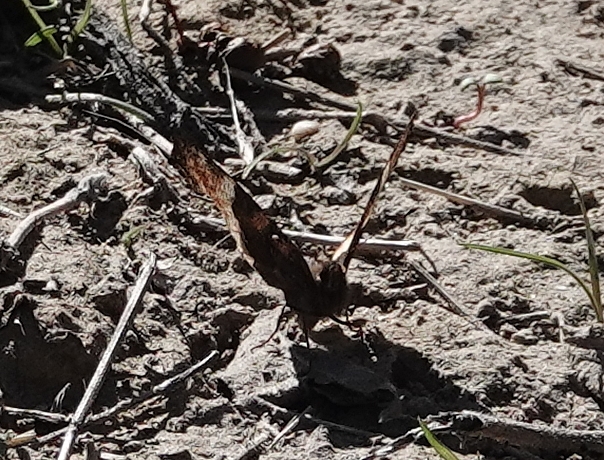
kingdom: Animalia
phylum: Arthropoda
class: Insecta
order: Lepidoptera
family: Nymphalidae
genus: Aglais
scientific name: Aglais milberti
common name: Milbert's tortoiseshell
